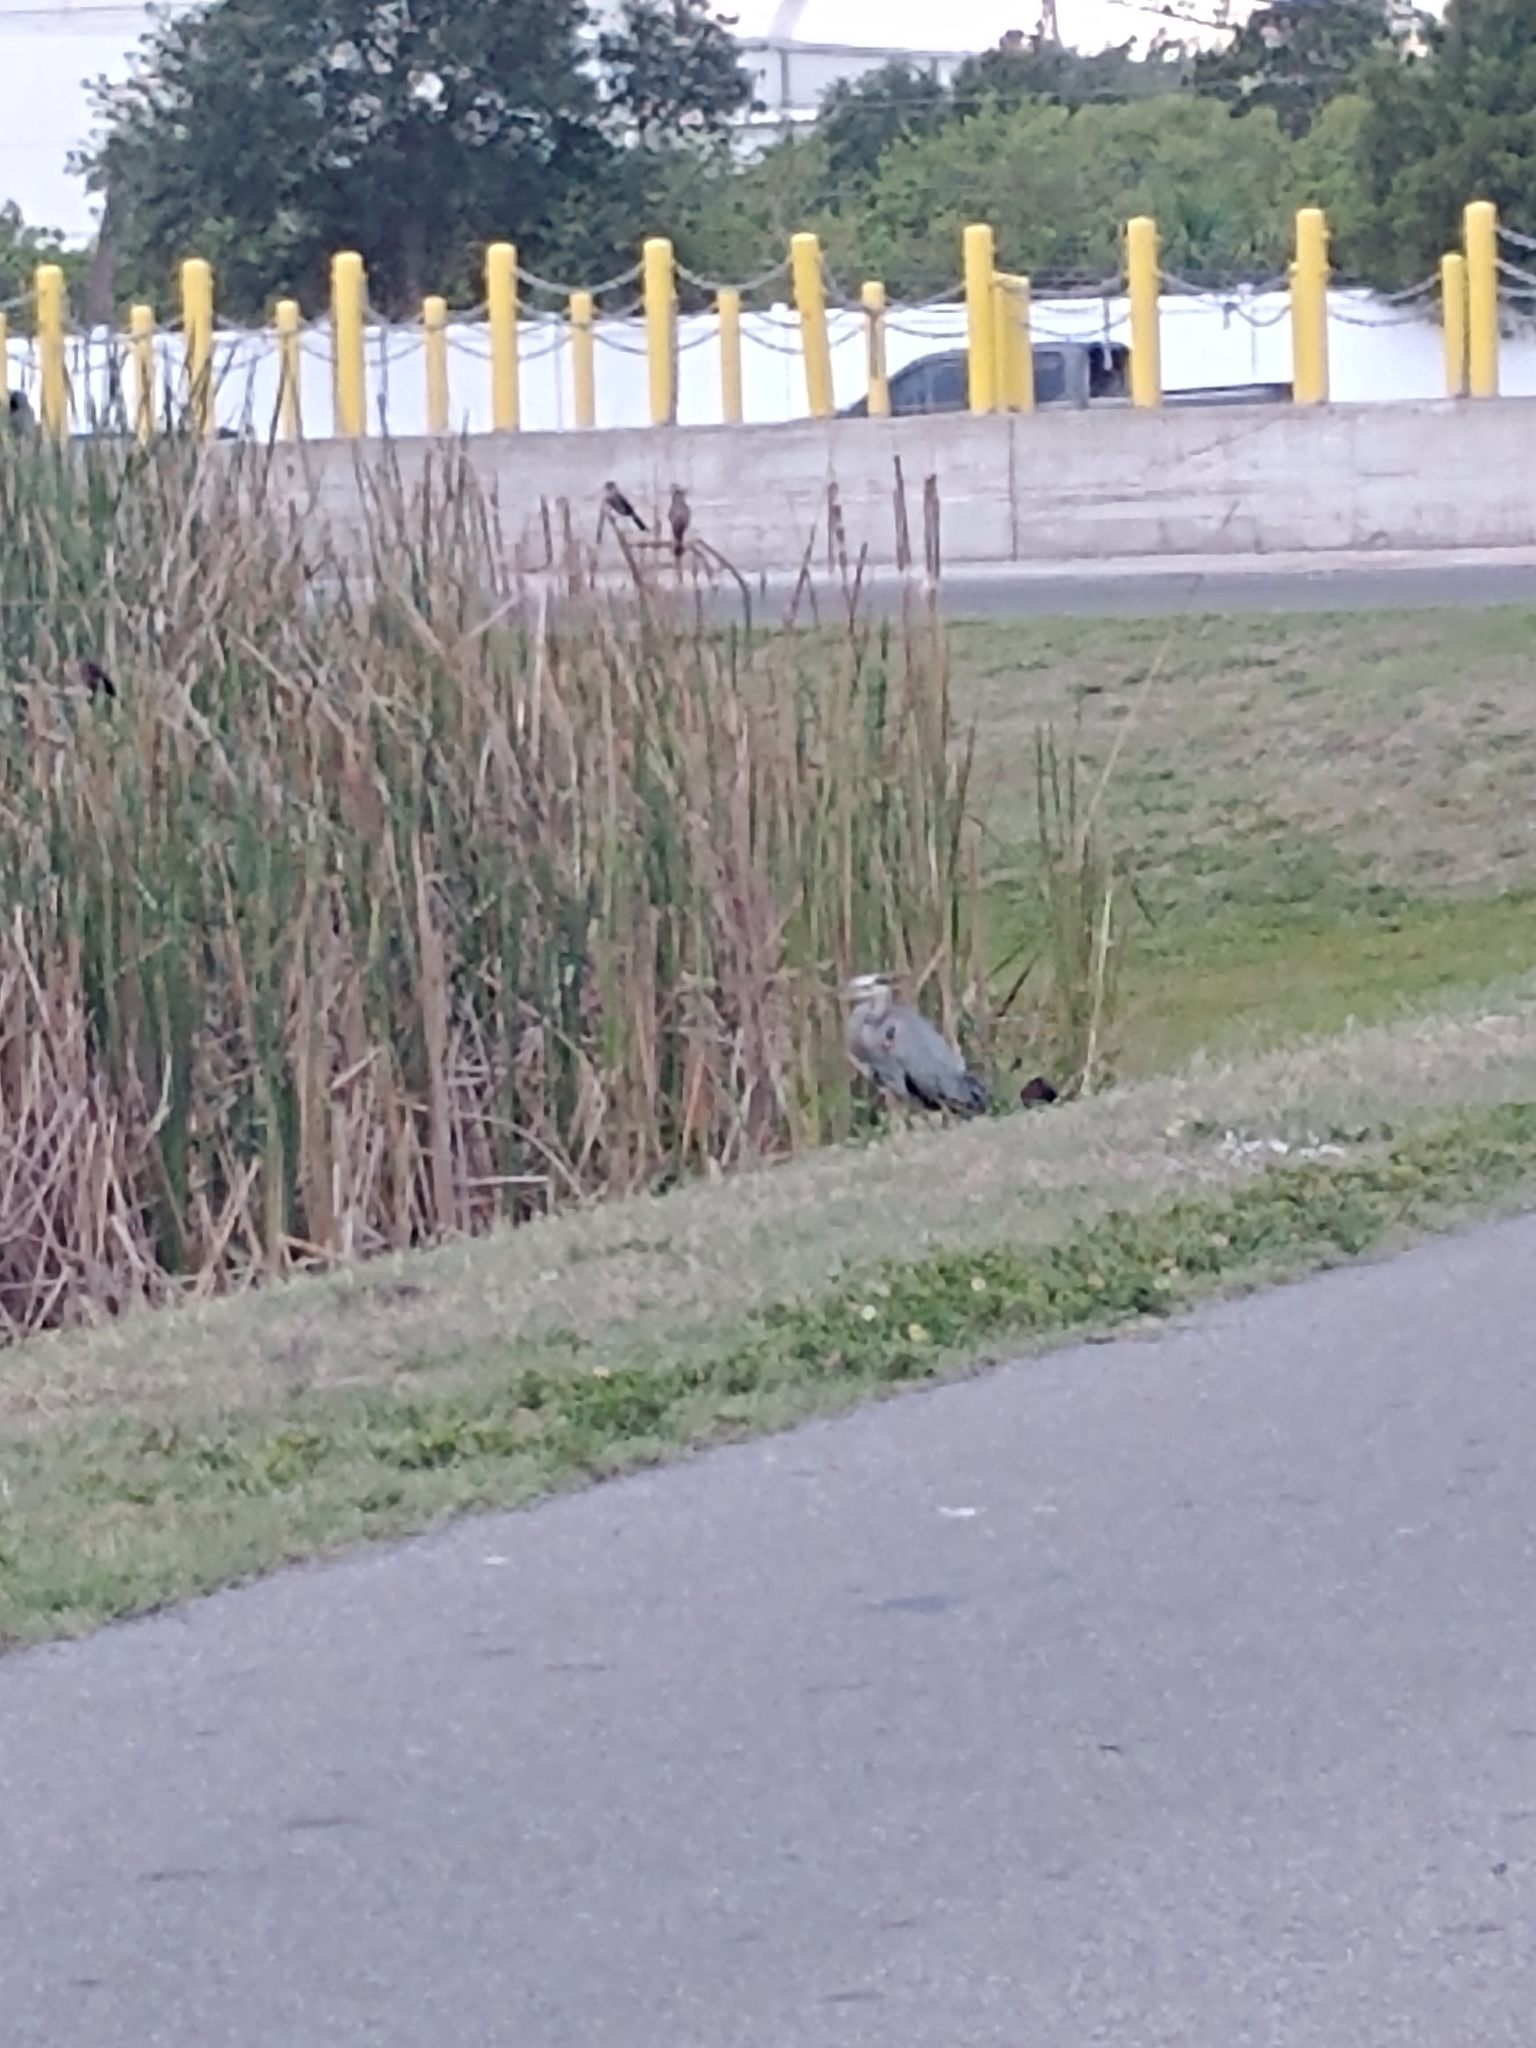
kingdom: Animalia
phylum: Chordata
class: Aves
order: Pelecaniformes
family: Ardeidae
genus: Ardea
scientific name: Ardea herodias
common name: Great blue heron
